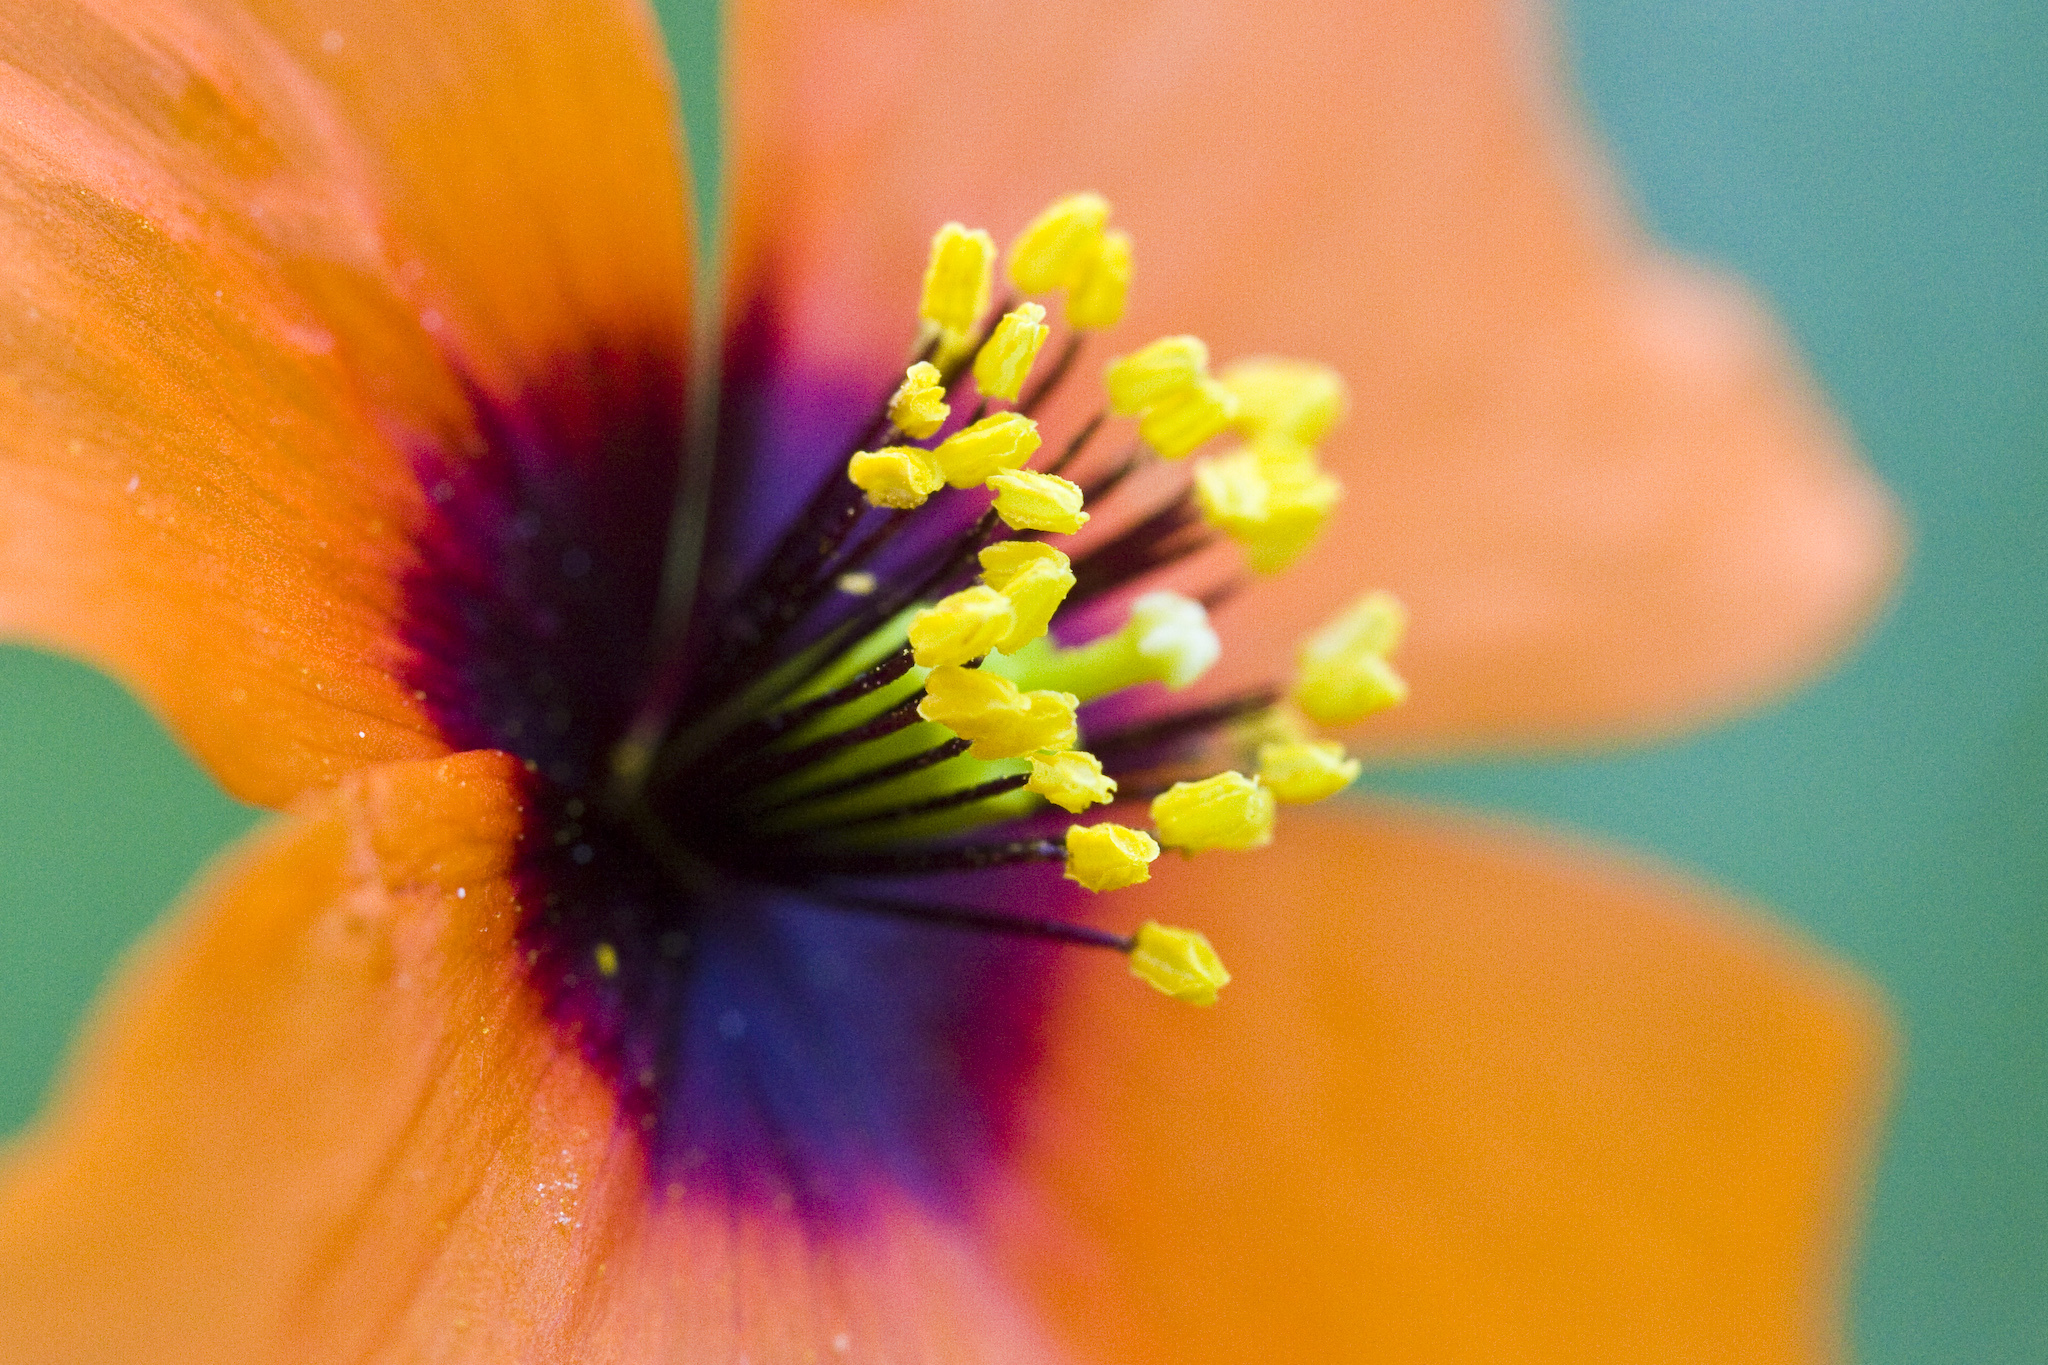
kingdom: Plantae
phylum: Tracheophyta
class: Magnoliopsida
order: Ranunculales
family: Papaveraceae
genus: Stylomecon
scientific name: Stylomecon heterophylla
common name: Flaming-poppy
